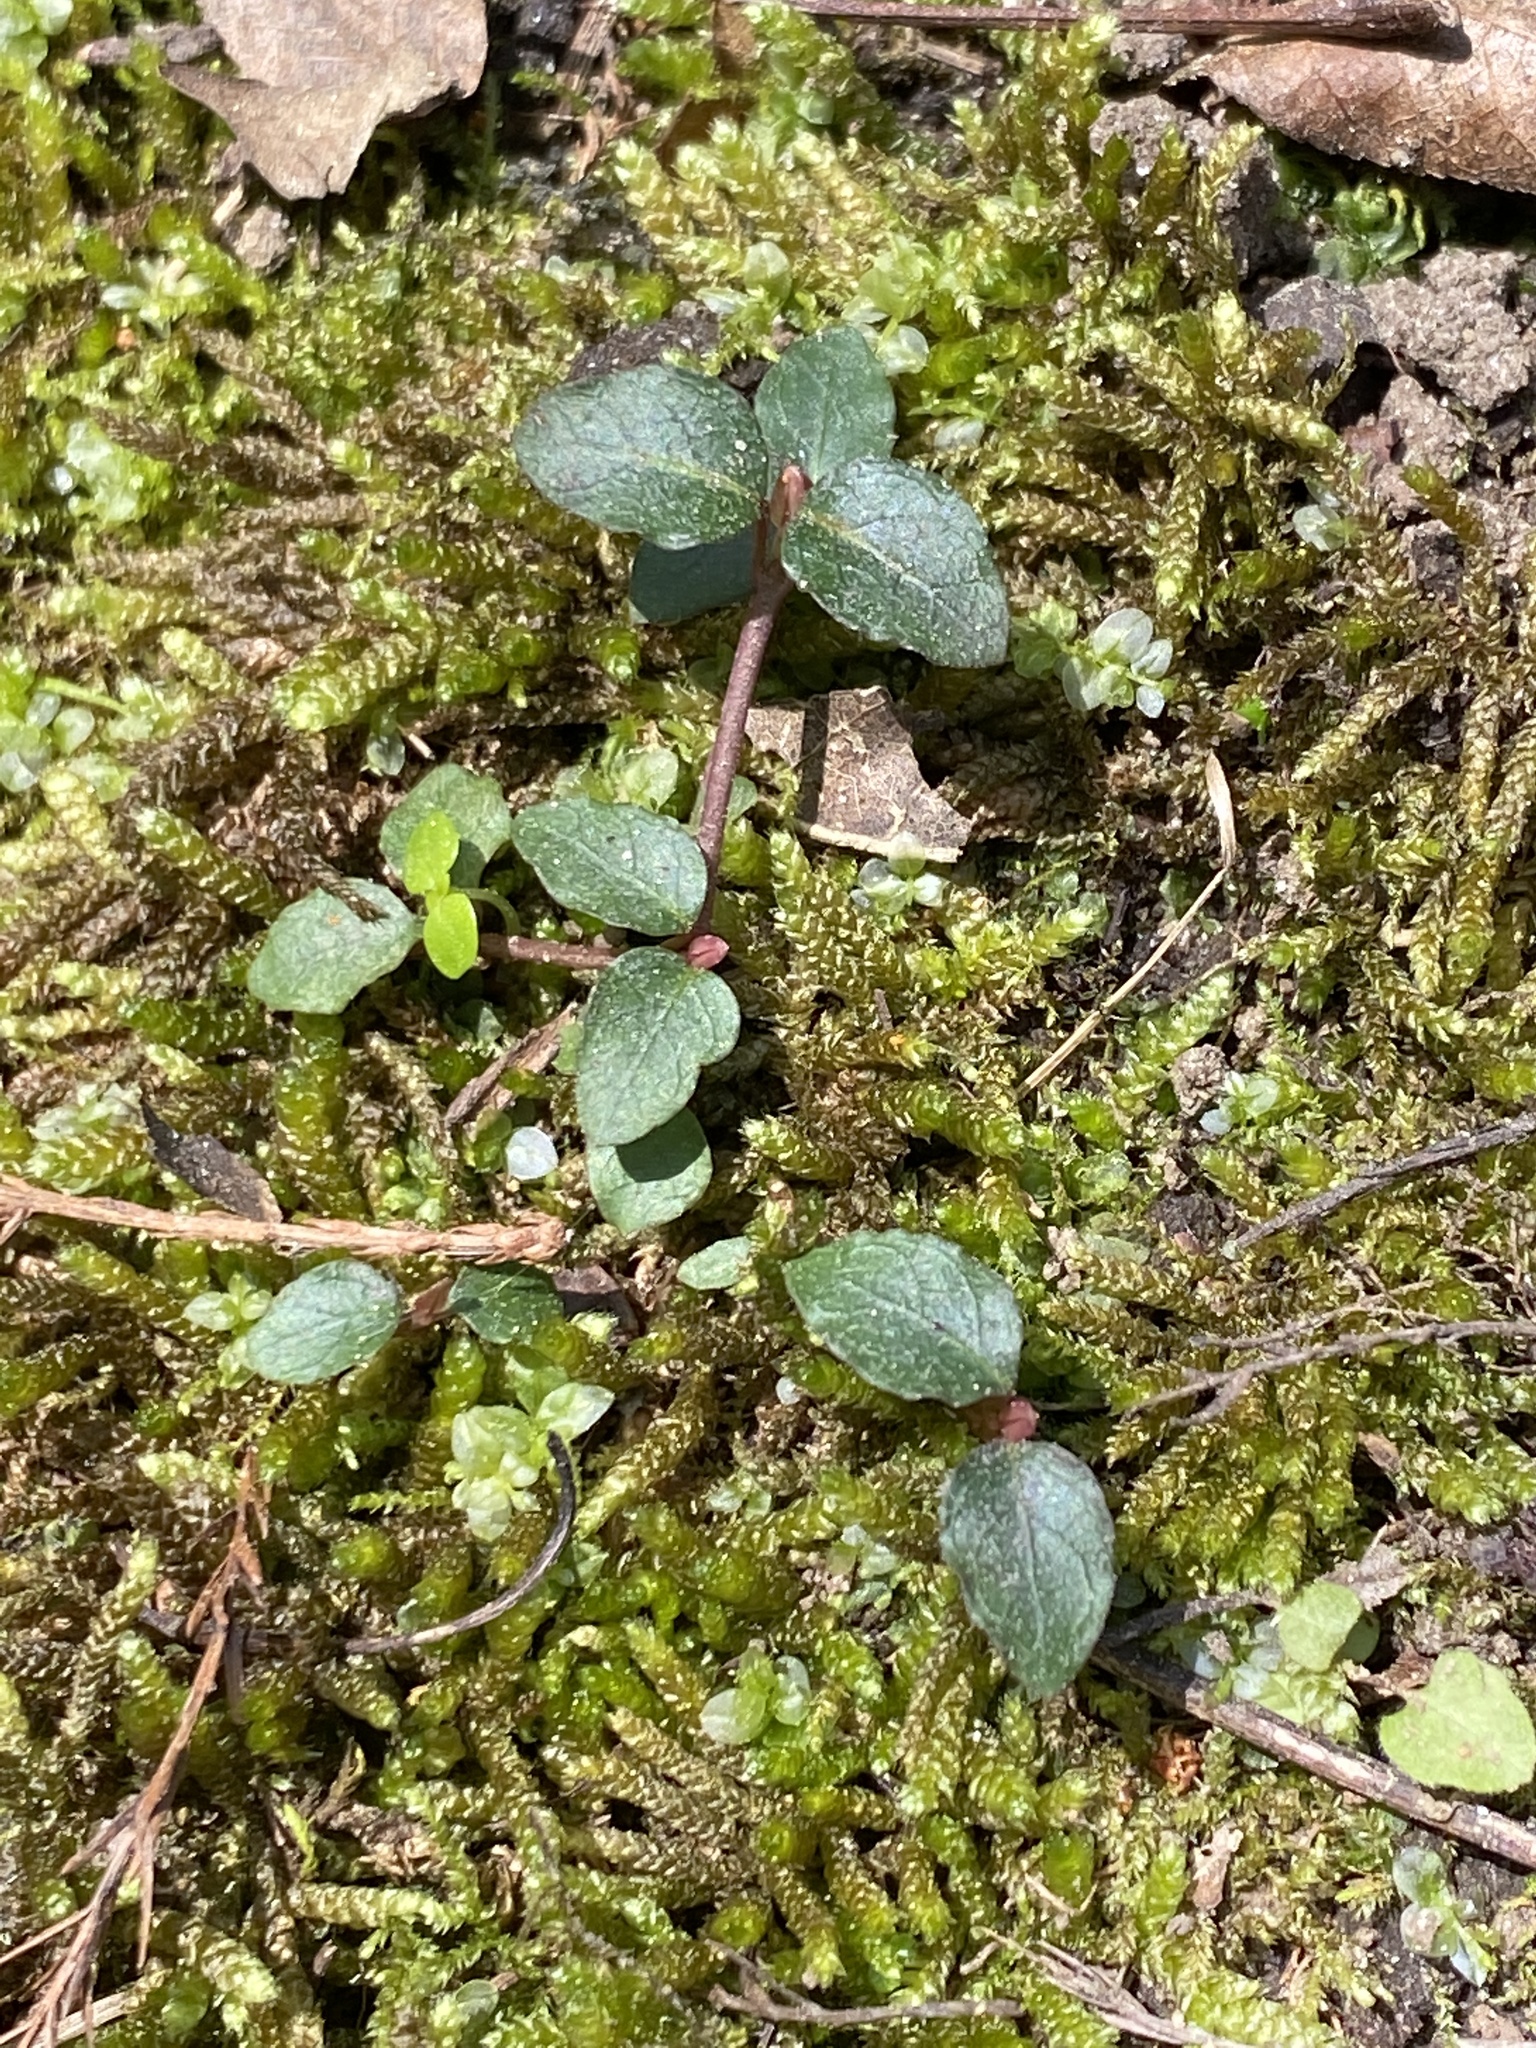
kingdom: Plantae
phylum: Tracheophyta
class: Magnoliopsida
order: Gentianales
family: Rubiaceae
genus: Mitchella
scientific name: Mitchella repens
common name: Partridge-berry
